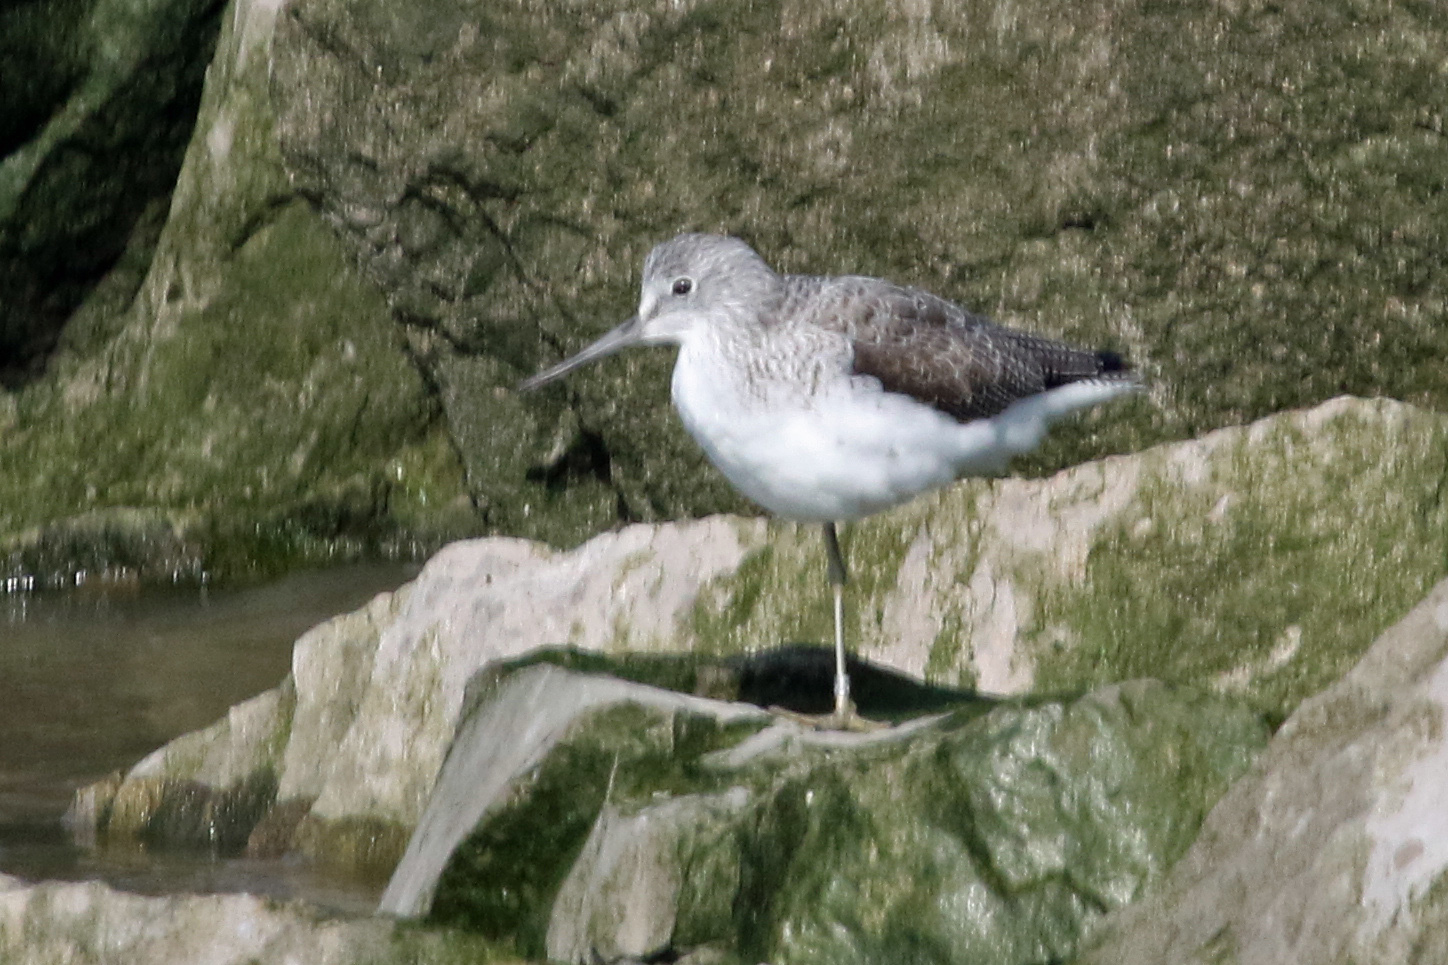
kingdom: Animalia
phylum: Chordata
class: Aves
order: Charadriiformes
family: Scolopacidae
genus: Tringa
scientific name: Tringa nebularia
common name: Common greenshank
